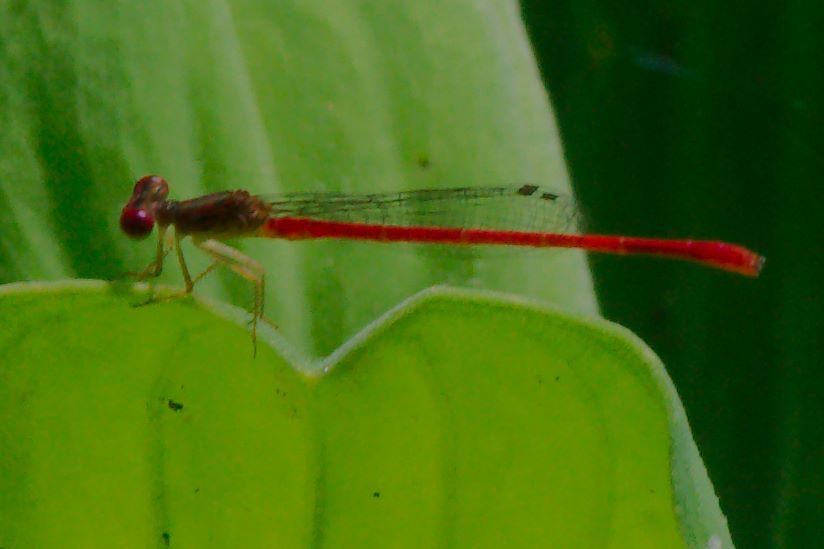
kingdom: Animalia
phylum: Arthropoda
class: Insecta
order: Odonata
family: Coenagrionidae
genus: Telebasis
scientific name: Telebasis byersi
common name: Duckweed firetail
